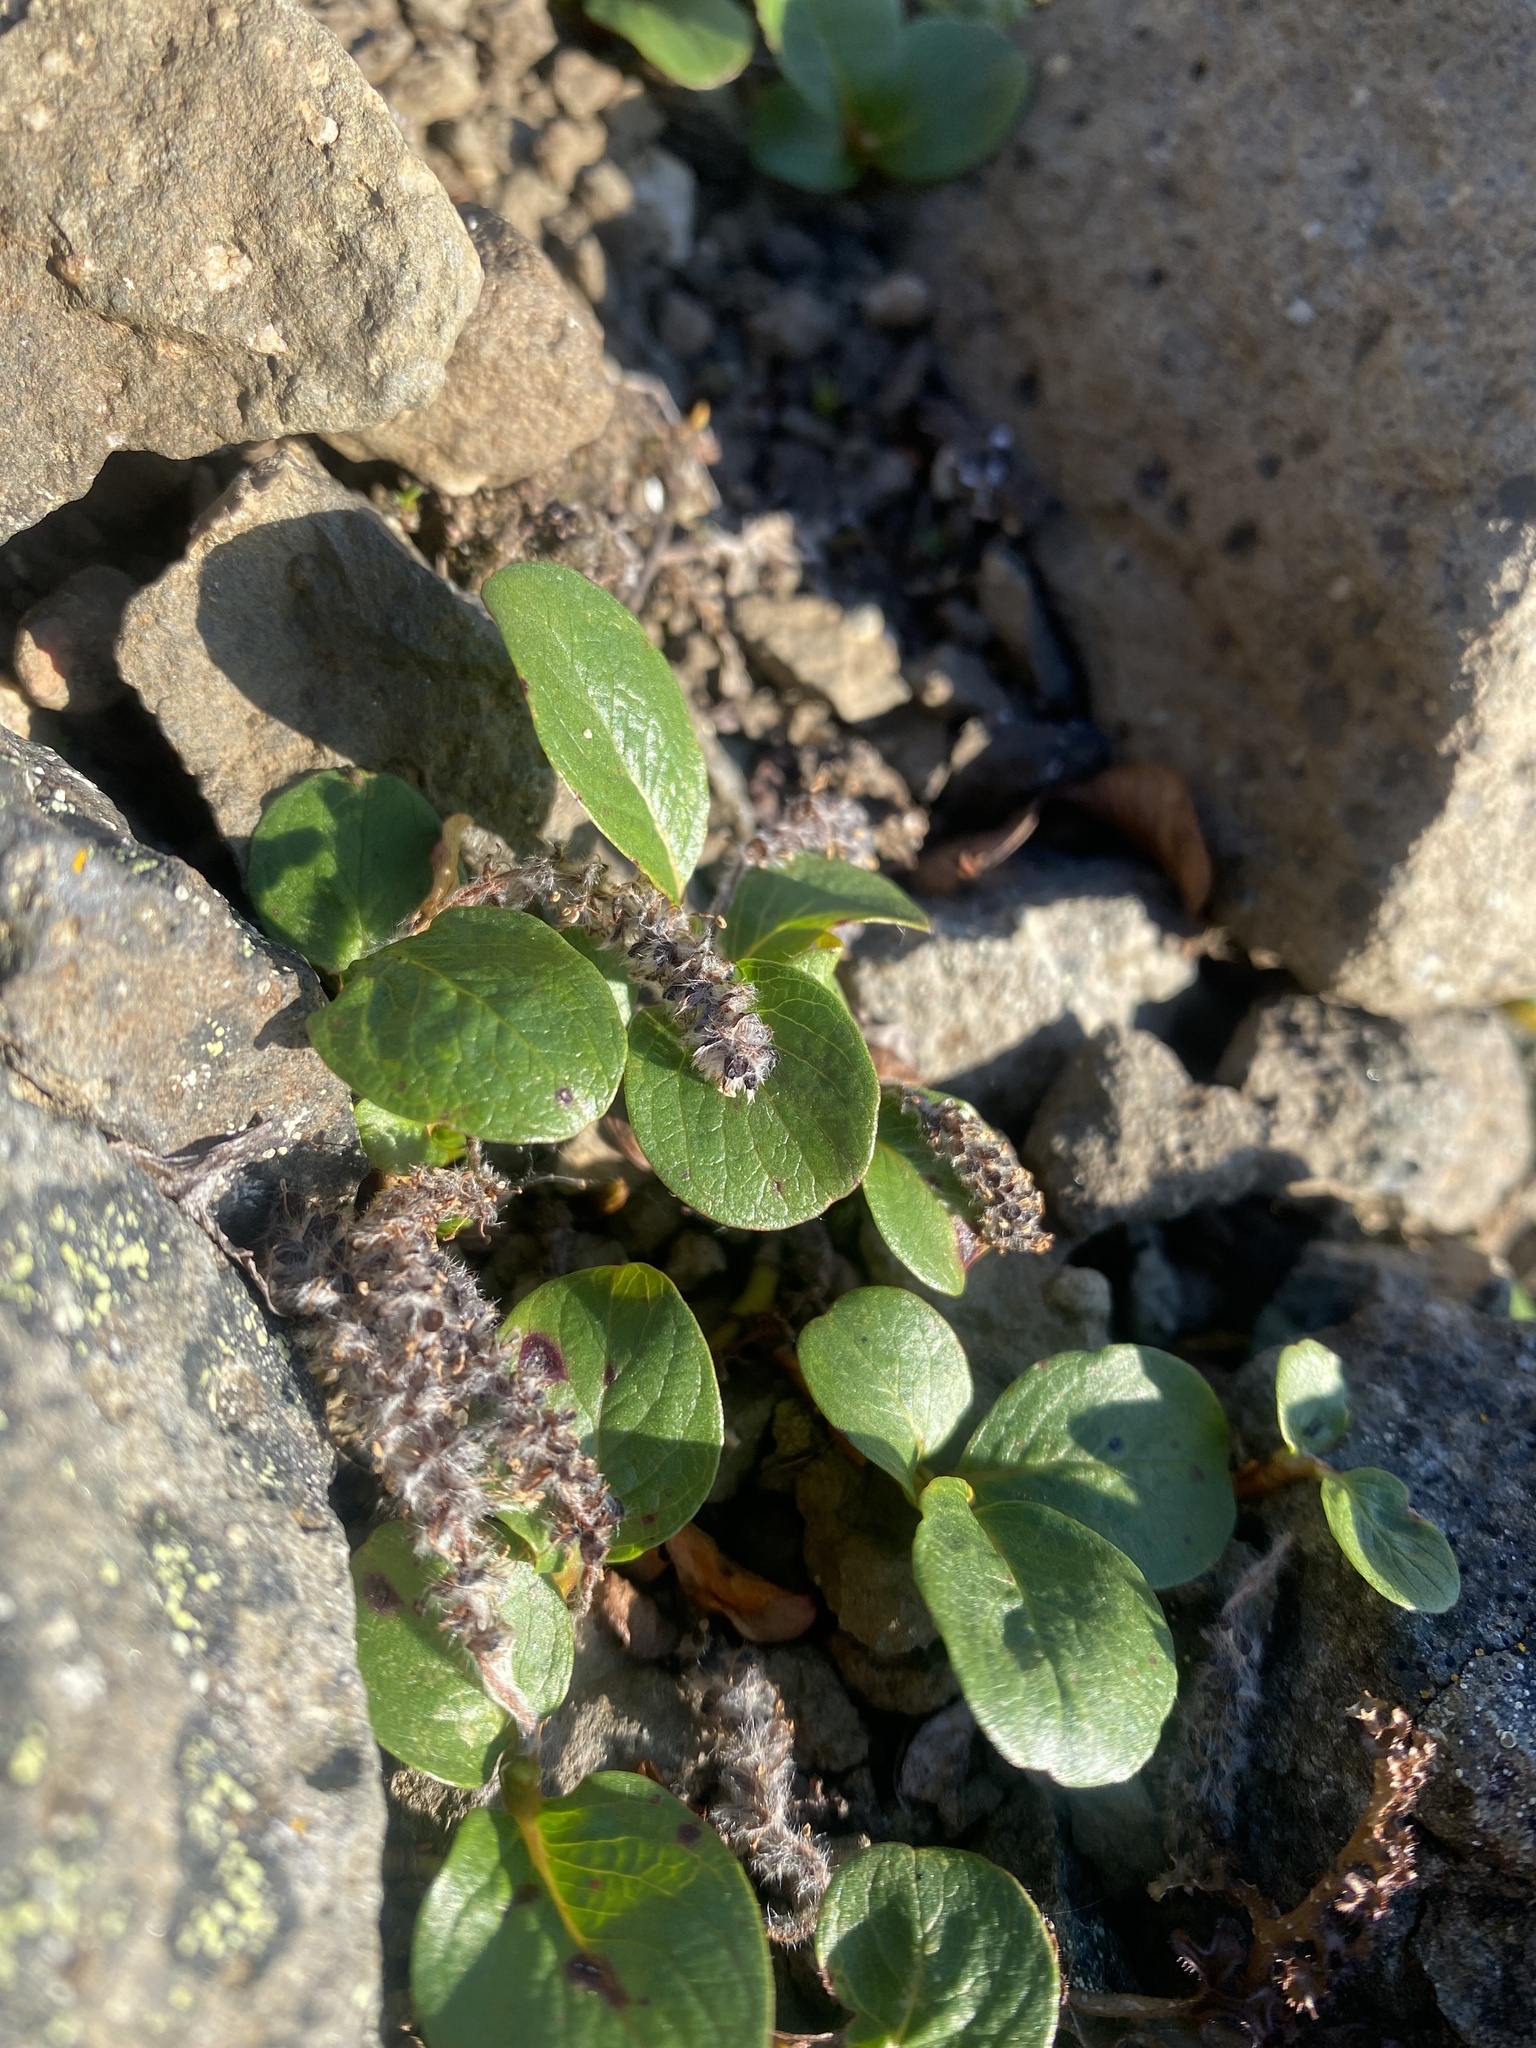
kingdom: Plantae
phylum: Tracheophyta
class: Magnoliopsida
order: Malpighiales
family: Salicaceae
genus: Salix
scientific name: Salix polaris
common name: Polar willow
